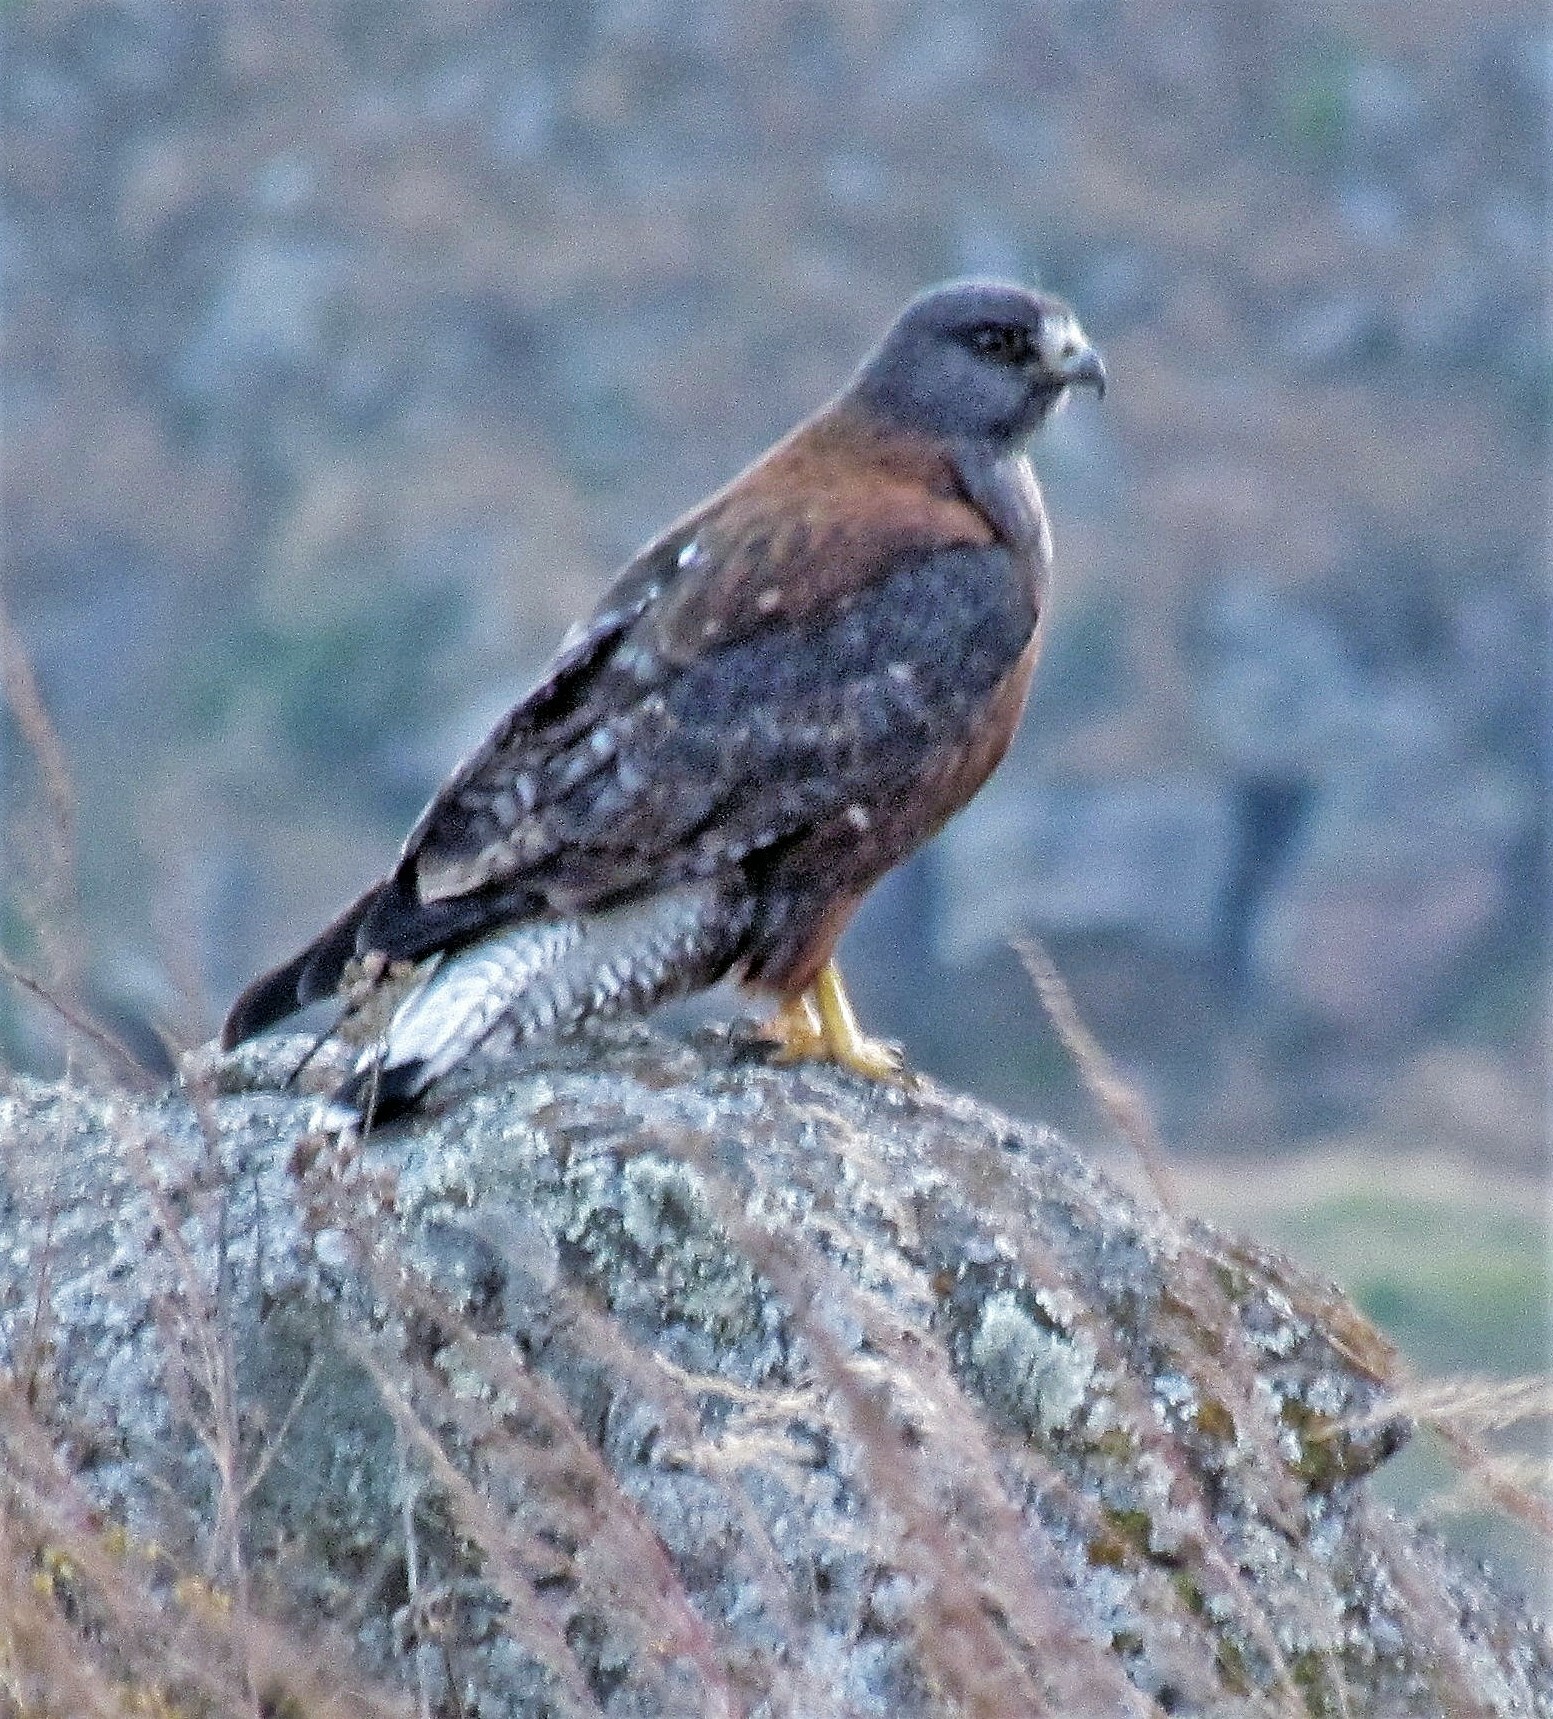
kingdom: Animalia
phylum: Chordata
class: Aves
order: Accipitriformes
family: Accipitridae
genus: Buteo
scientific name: Buteo polyosoma
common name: Variable hawk
